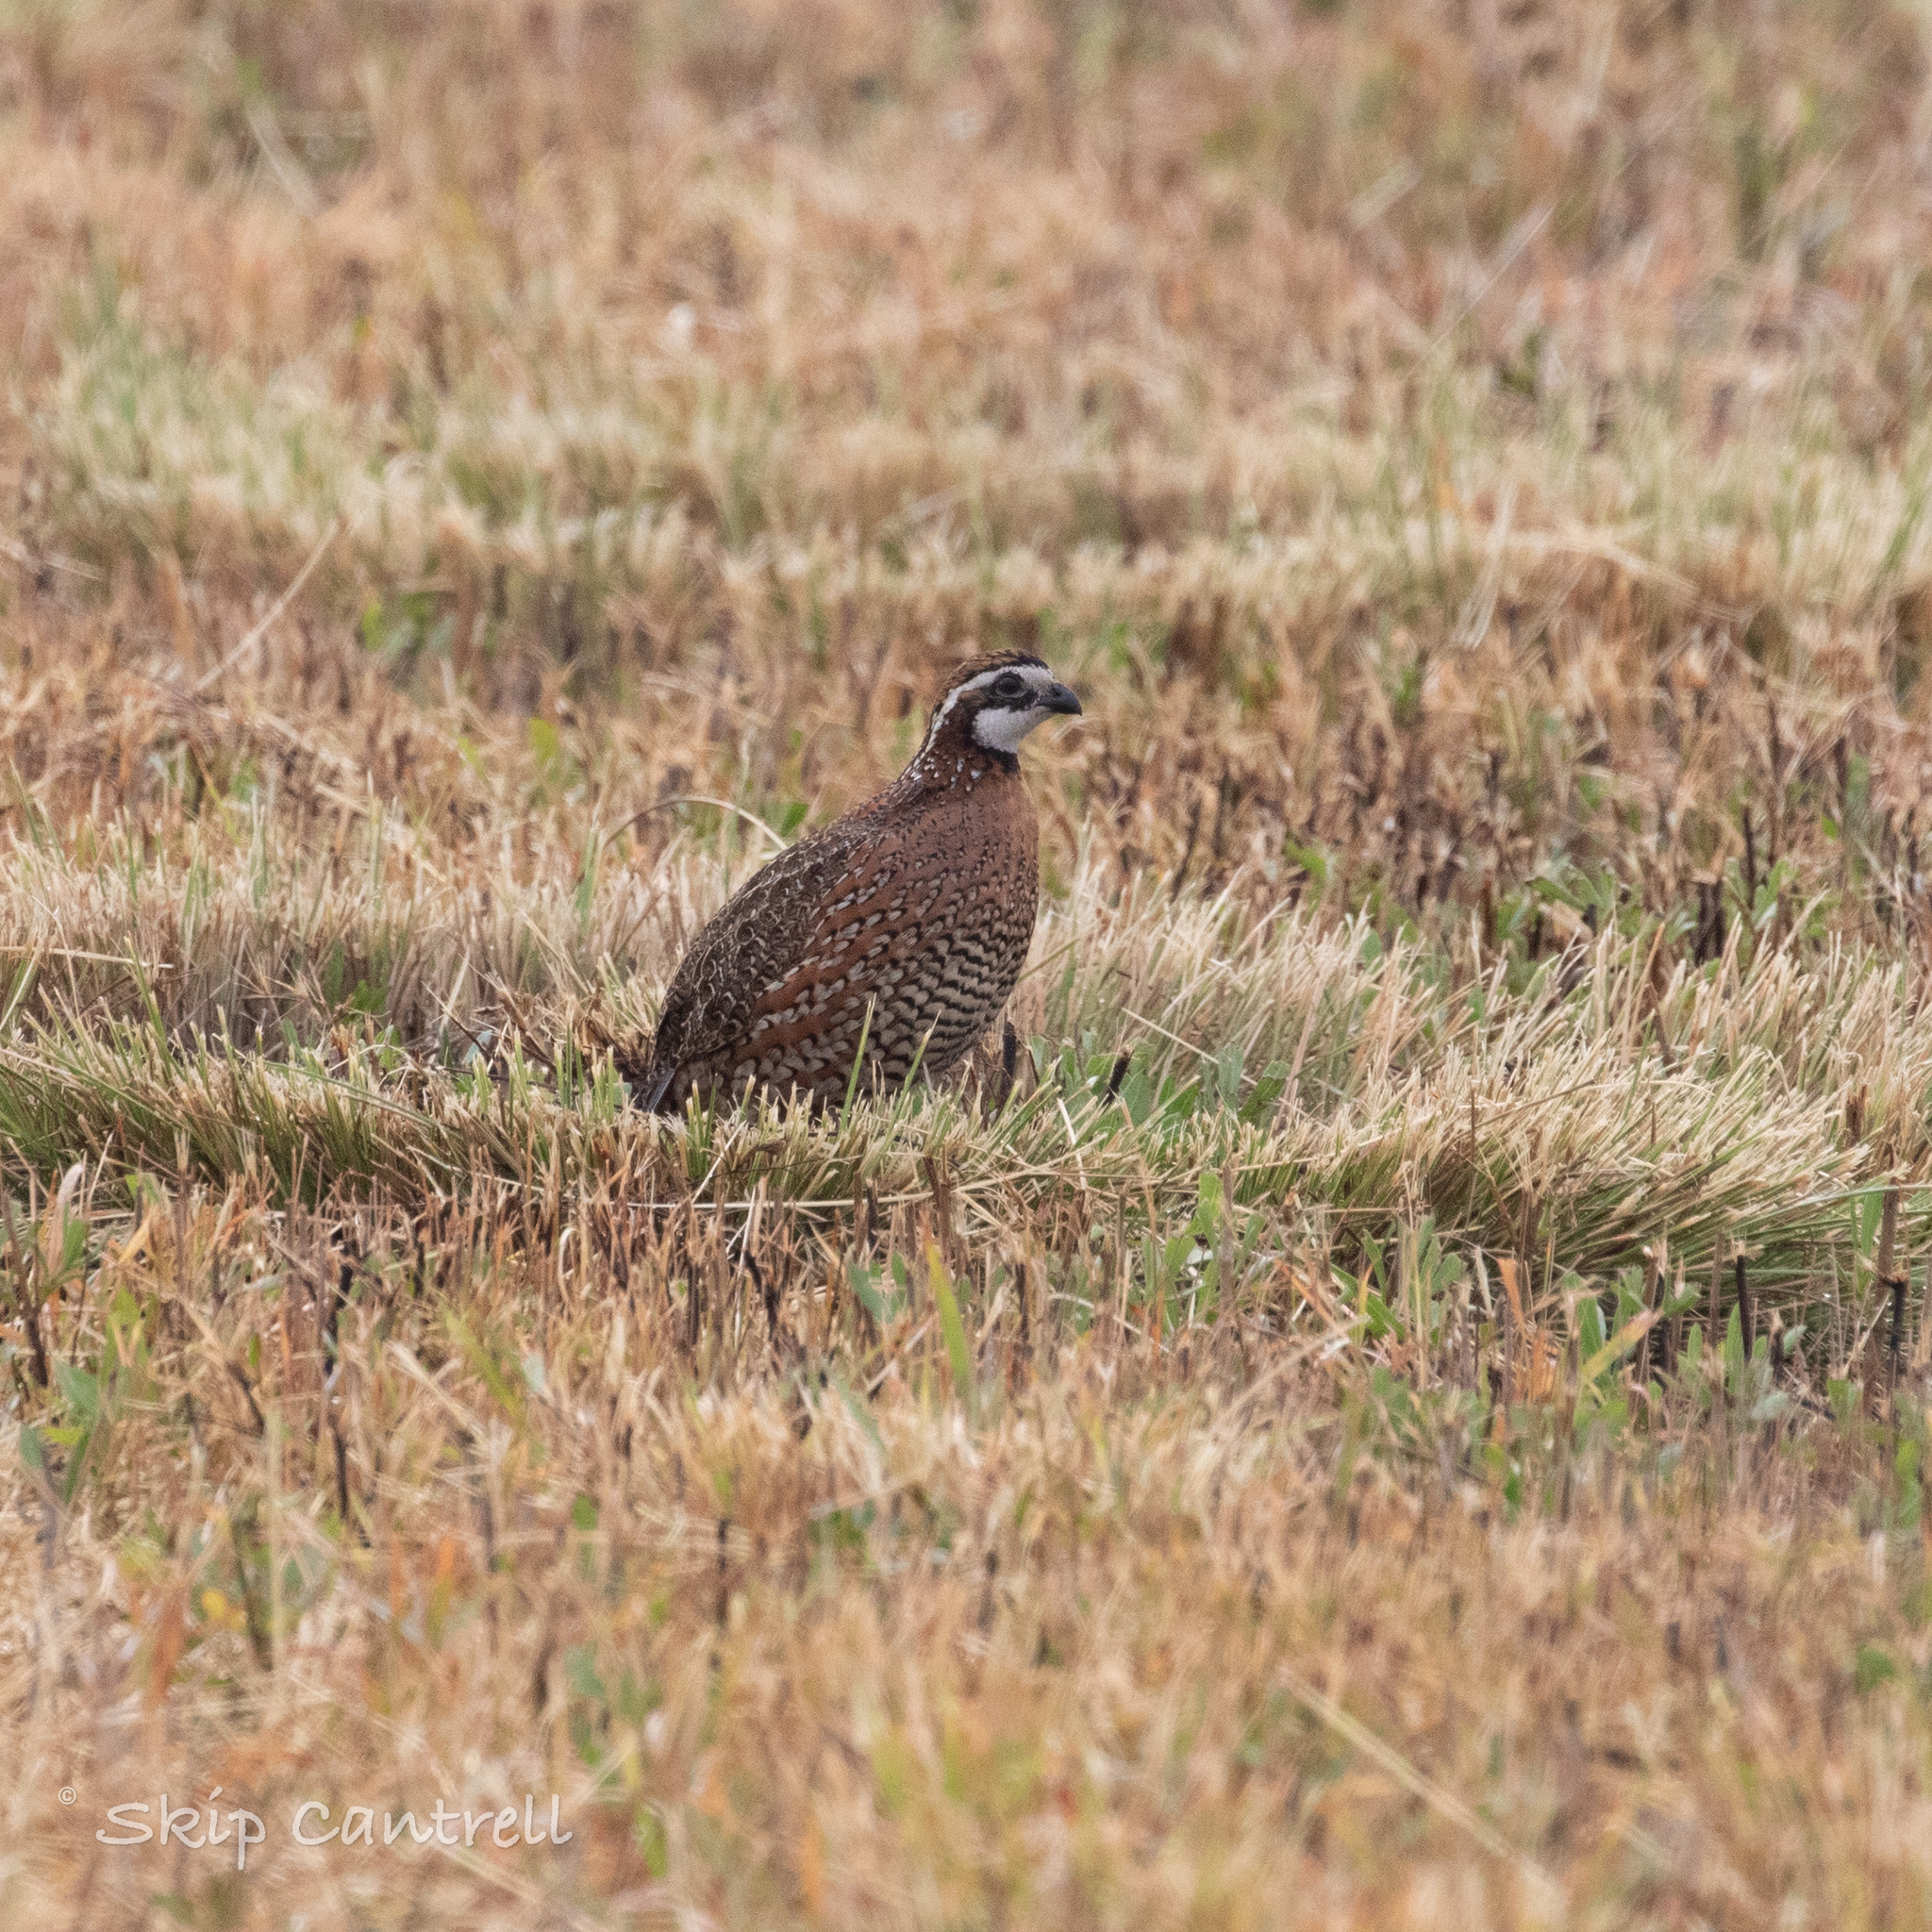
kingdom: Animalia
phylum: Chordata
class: Aves
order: Galliformes
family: Odontophoridae
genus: Colinus
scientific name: Colinus virginianus
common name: Northern bobwhite
